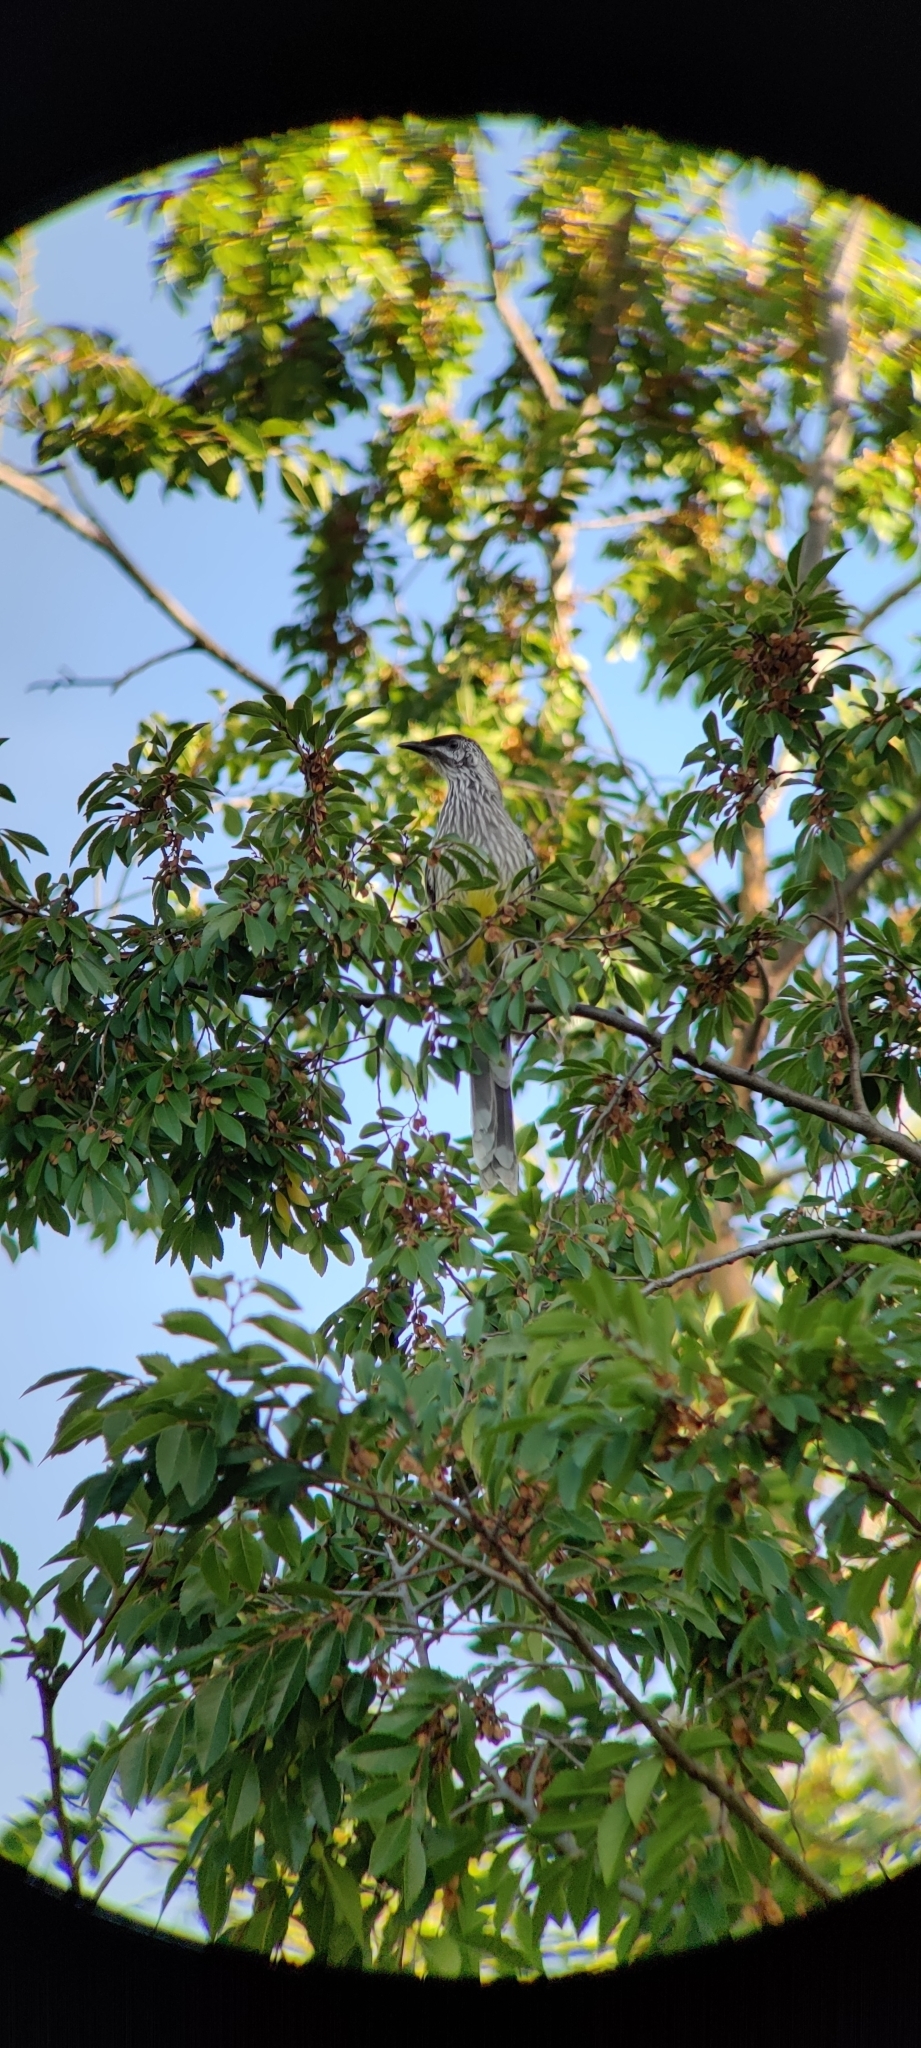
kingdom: Animalia
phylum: Chordata
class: Aves
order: Passeriformes
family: Meliphagidae
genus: Anthochaera
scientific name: Anthochaera carunculata
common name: Red wattlebird
